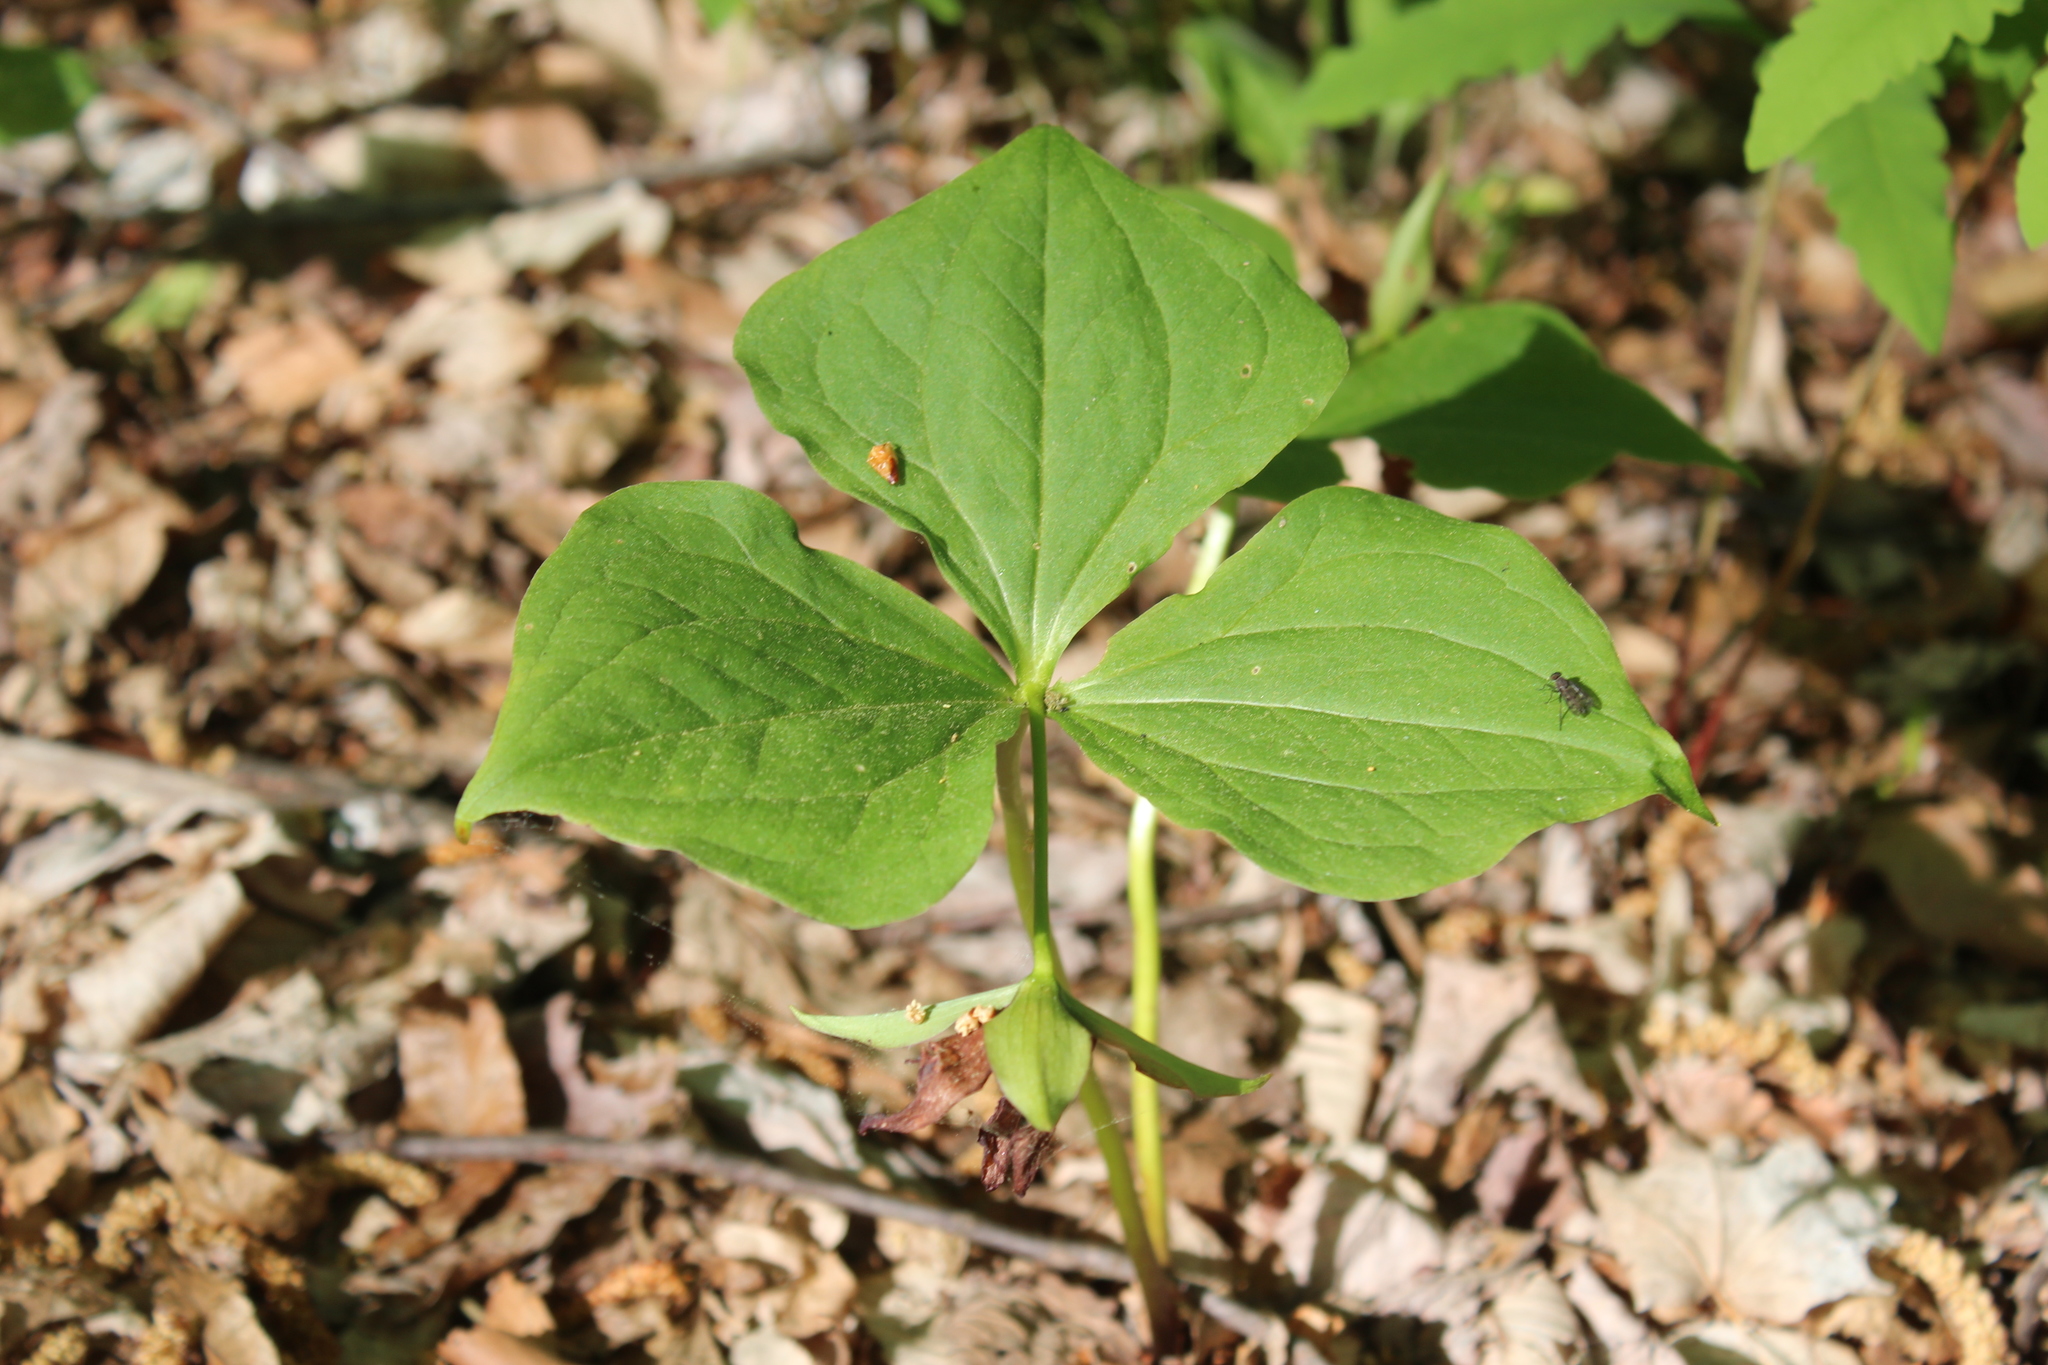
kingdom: Plantae
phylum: Tracheophyta
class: Liliopsida
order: Liliales
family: Melanthiaceae
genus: Trillium
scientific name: Trillium erectum
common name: Purple trillium
